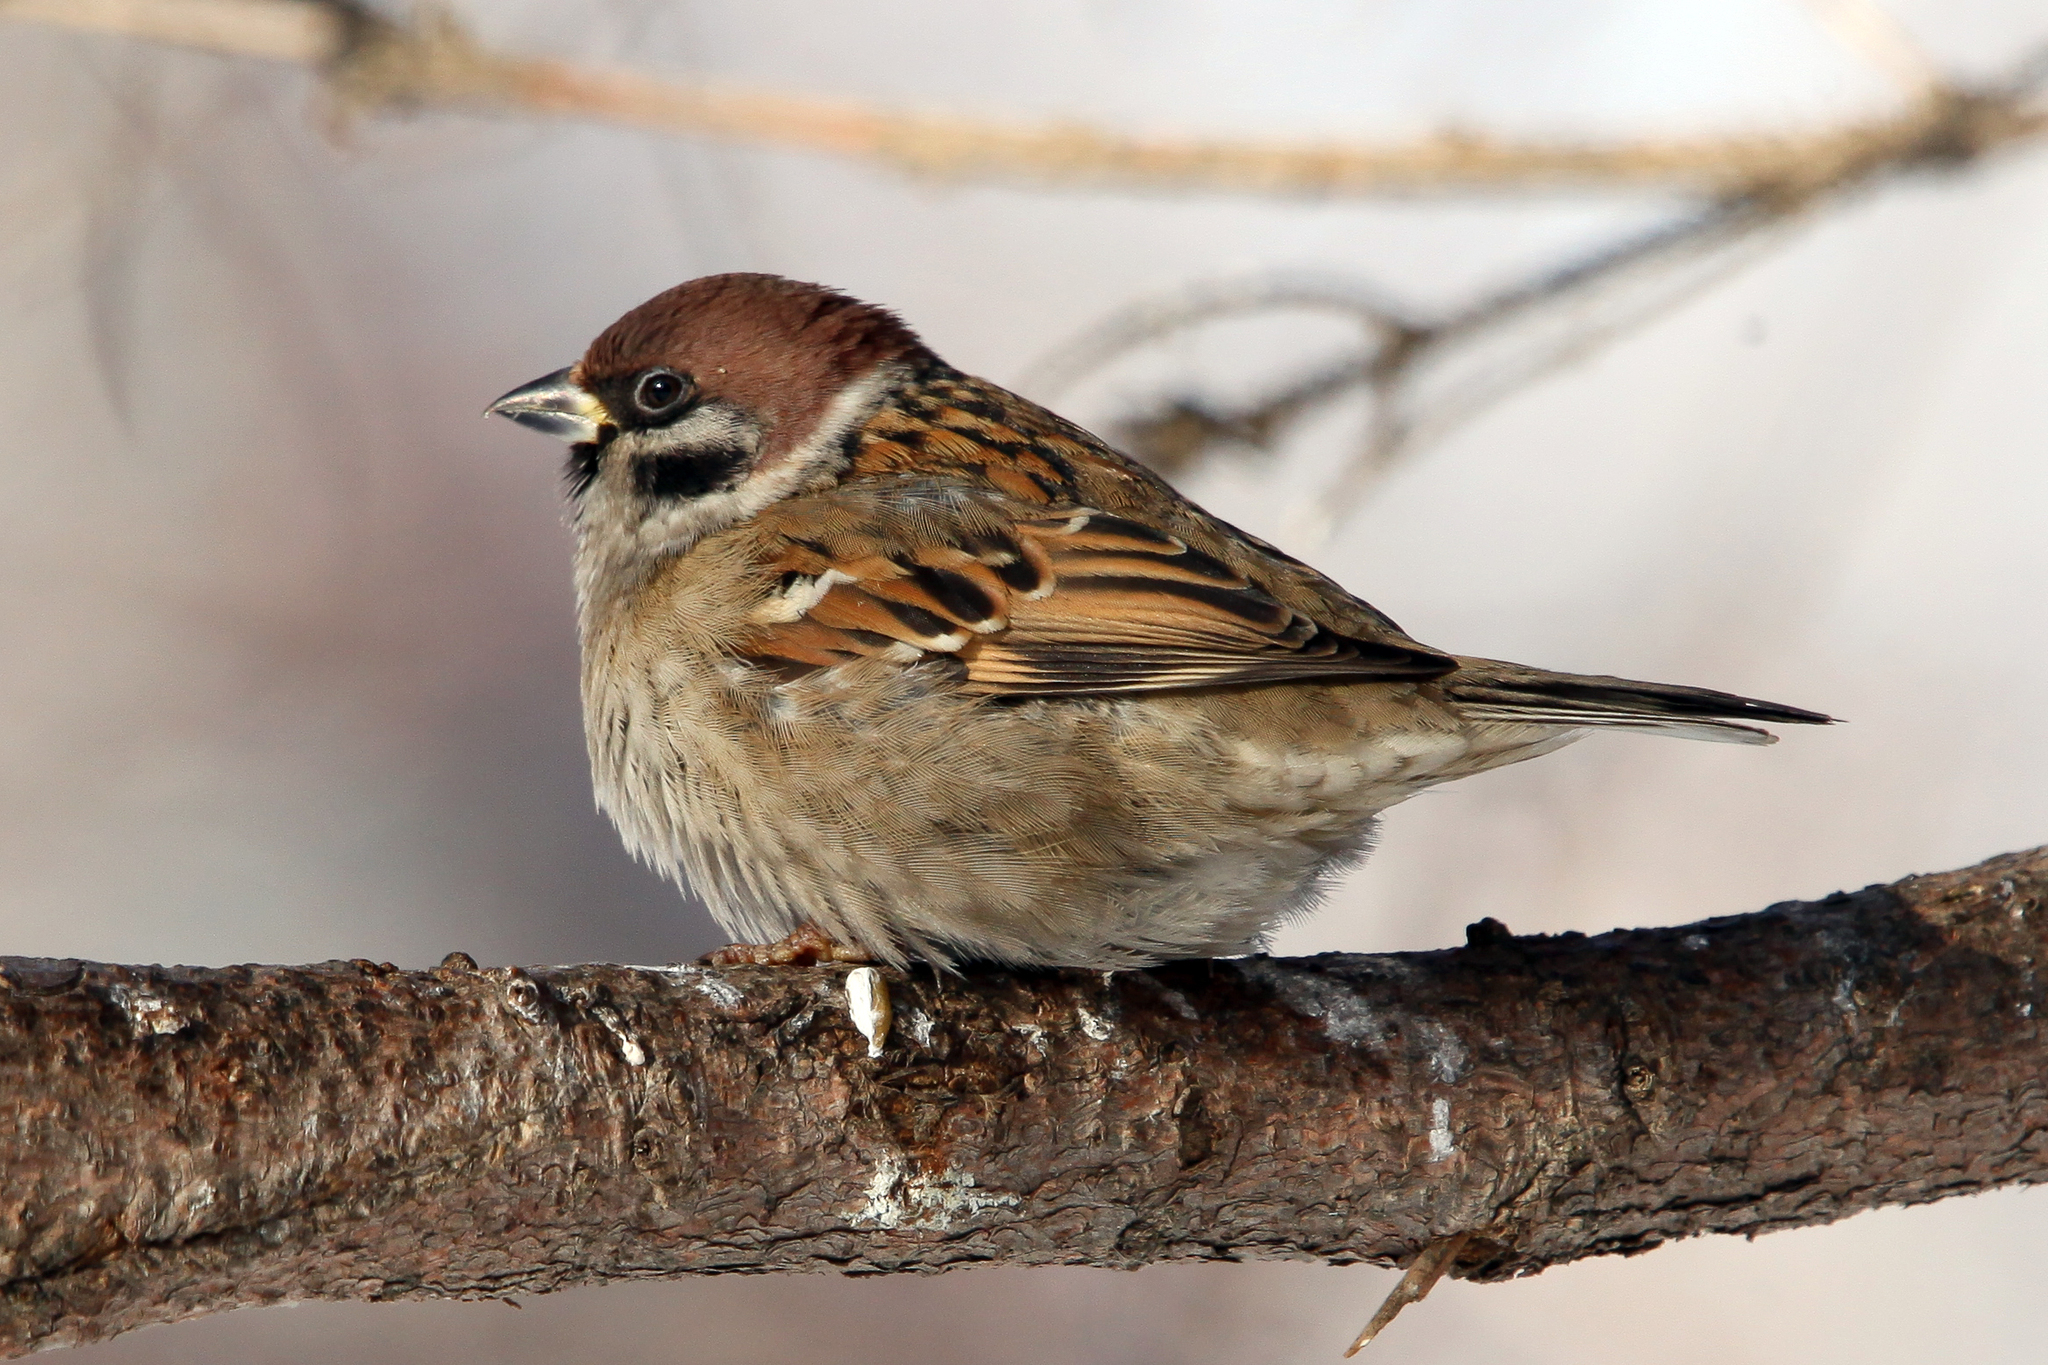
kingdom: Animalia
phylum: Chordata
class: Aves
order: Passeriformes
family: Passeridae
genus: Passer
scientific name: Passer montanus
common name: Eurasian tree sparrow
